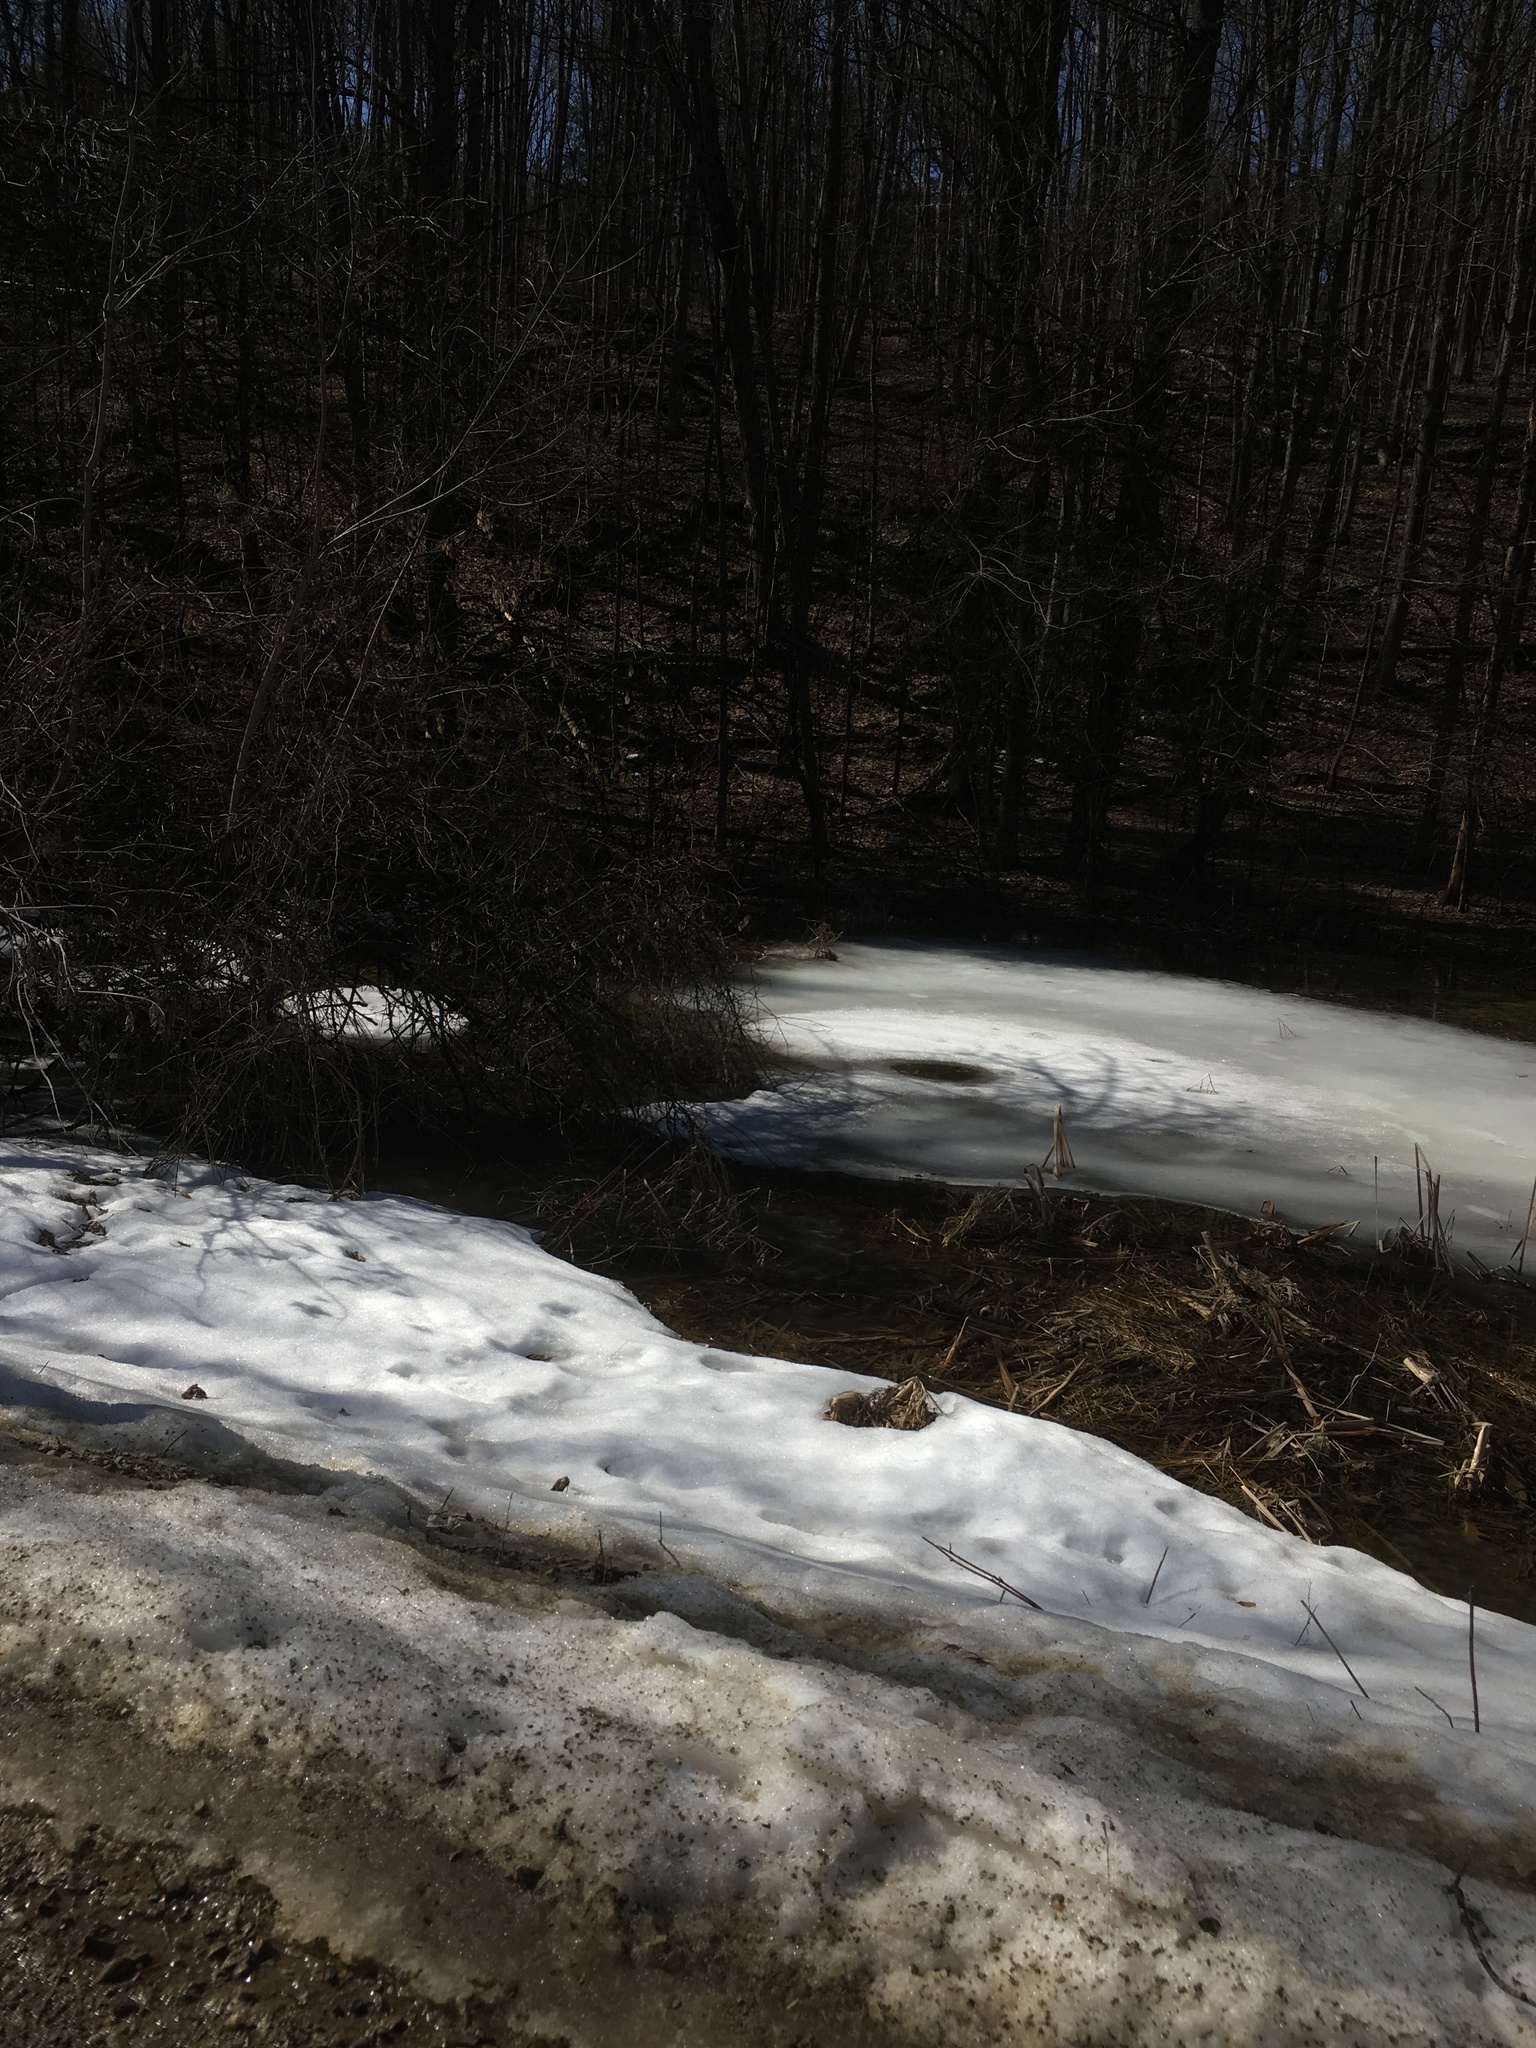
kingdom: Plantae
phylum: Tracheophyta
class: Liliopsida
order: Poales
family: Typhaceae
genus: Typha
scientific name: Typha
